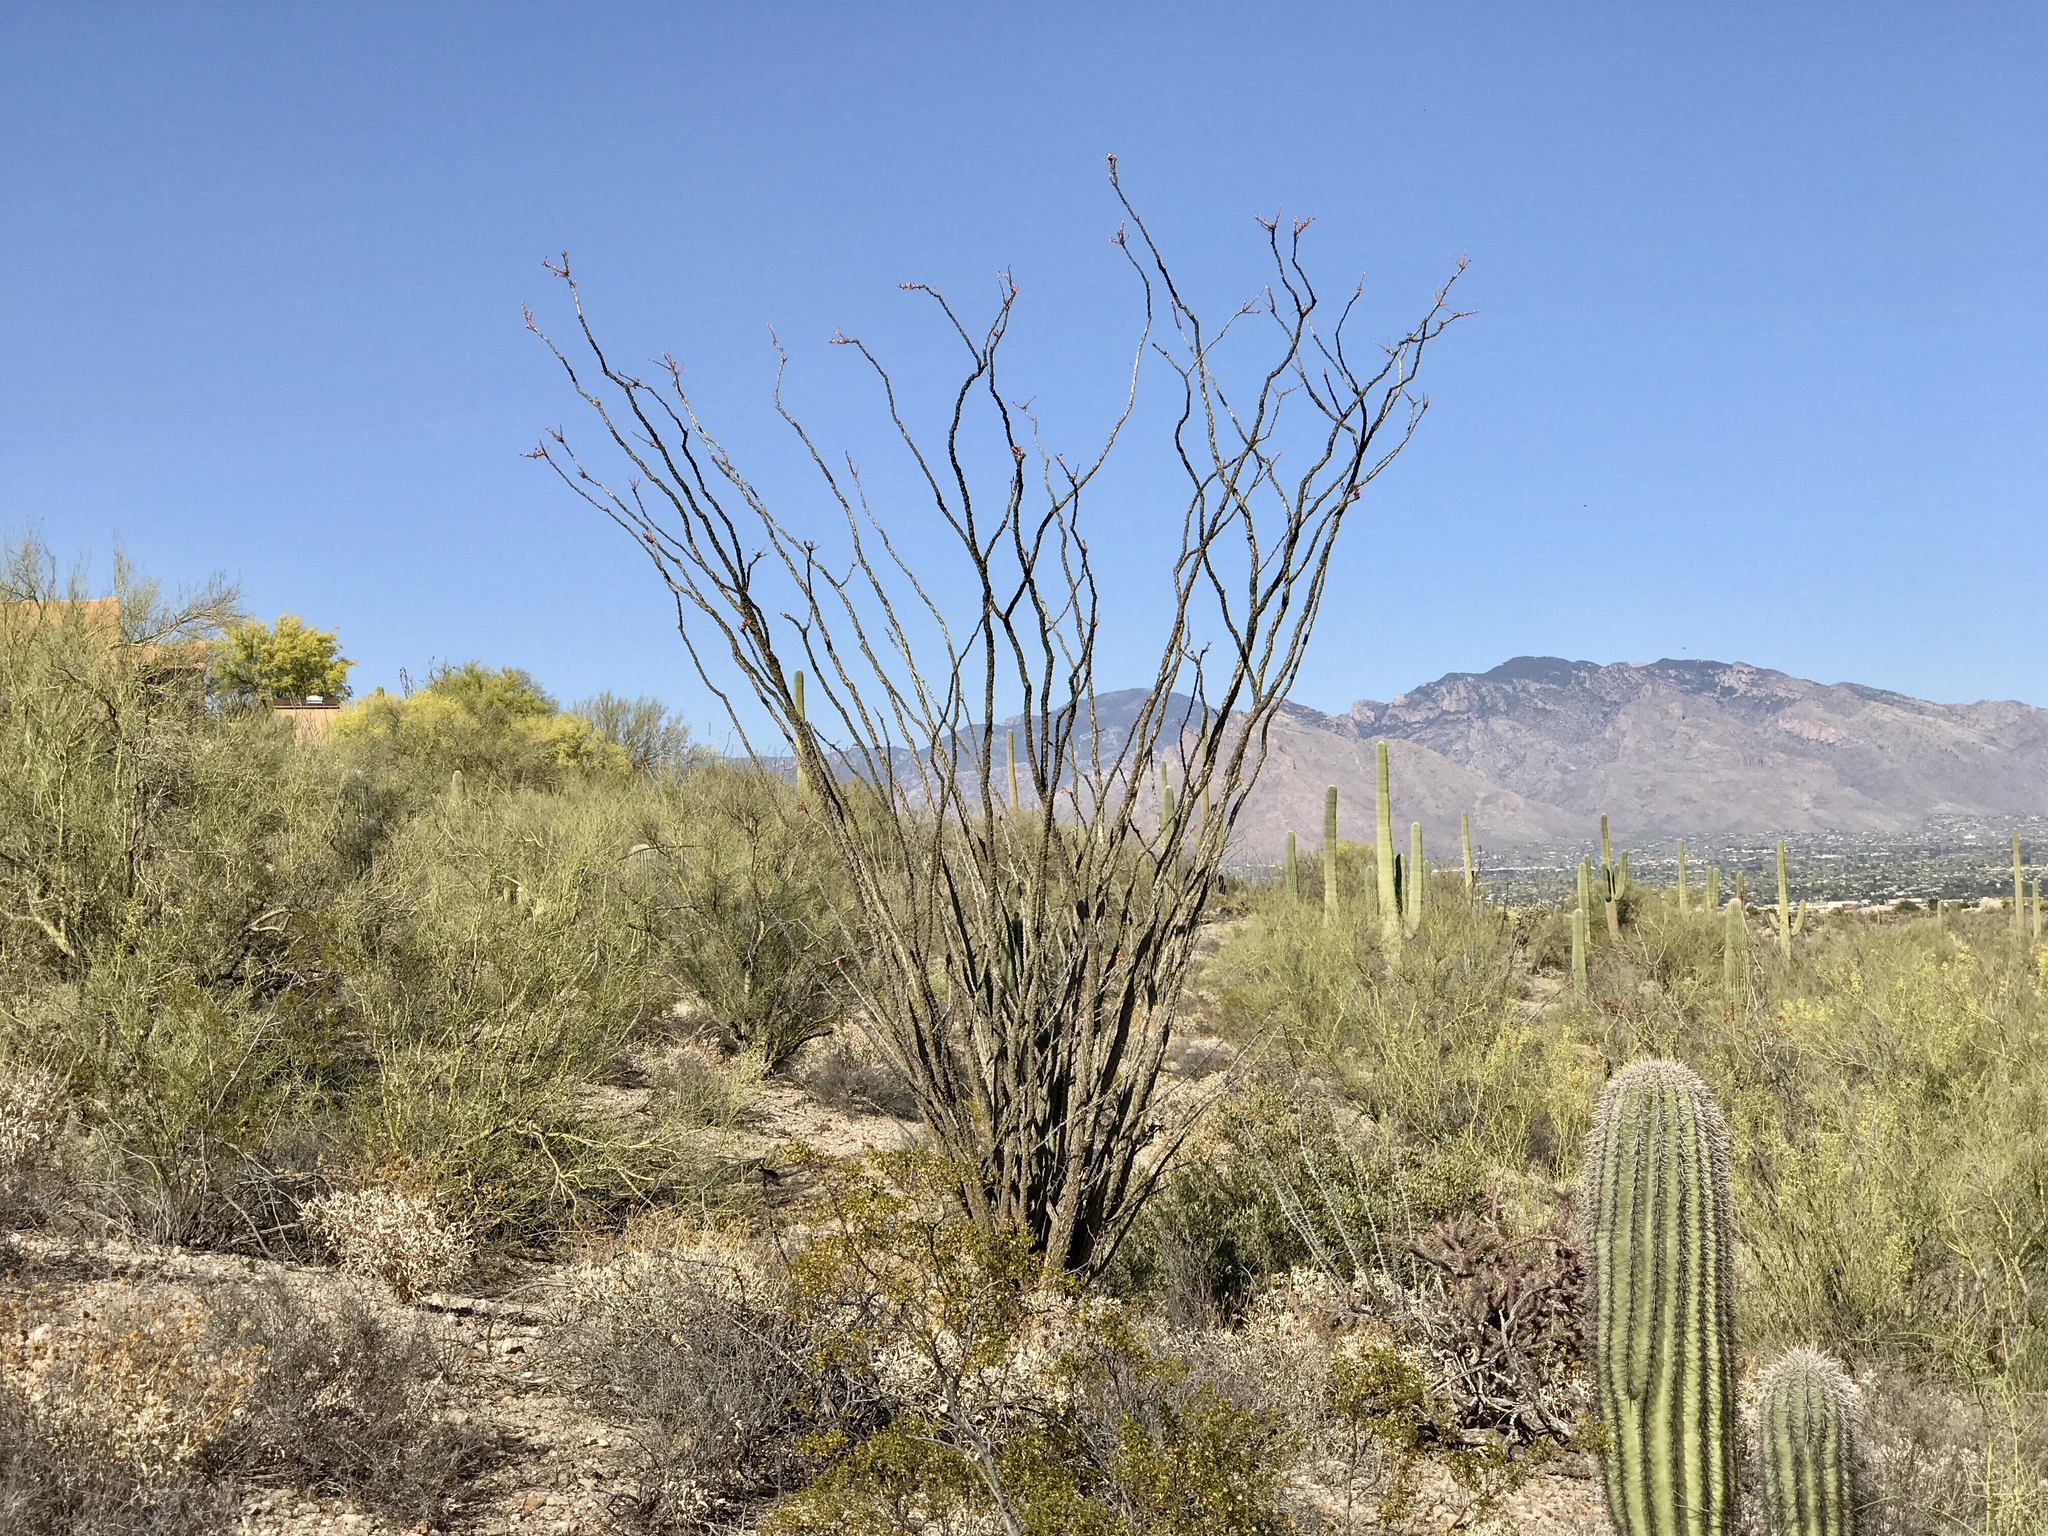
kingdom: Plantae
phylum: Tracheophyta
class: Magnoliopsida
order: Ericales
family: Fouquieriaceae
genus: Fouquieria
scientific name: Fouquieria splendens
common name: Vine-cactus
